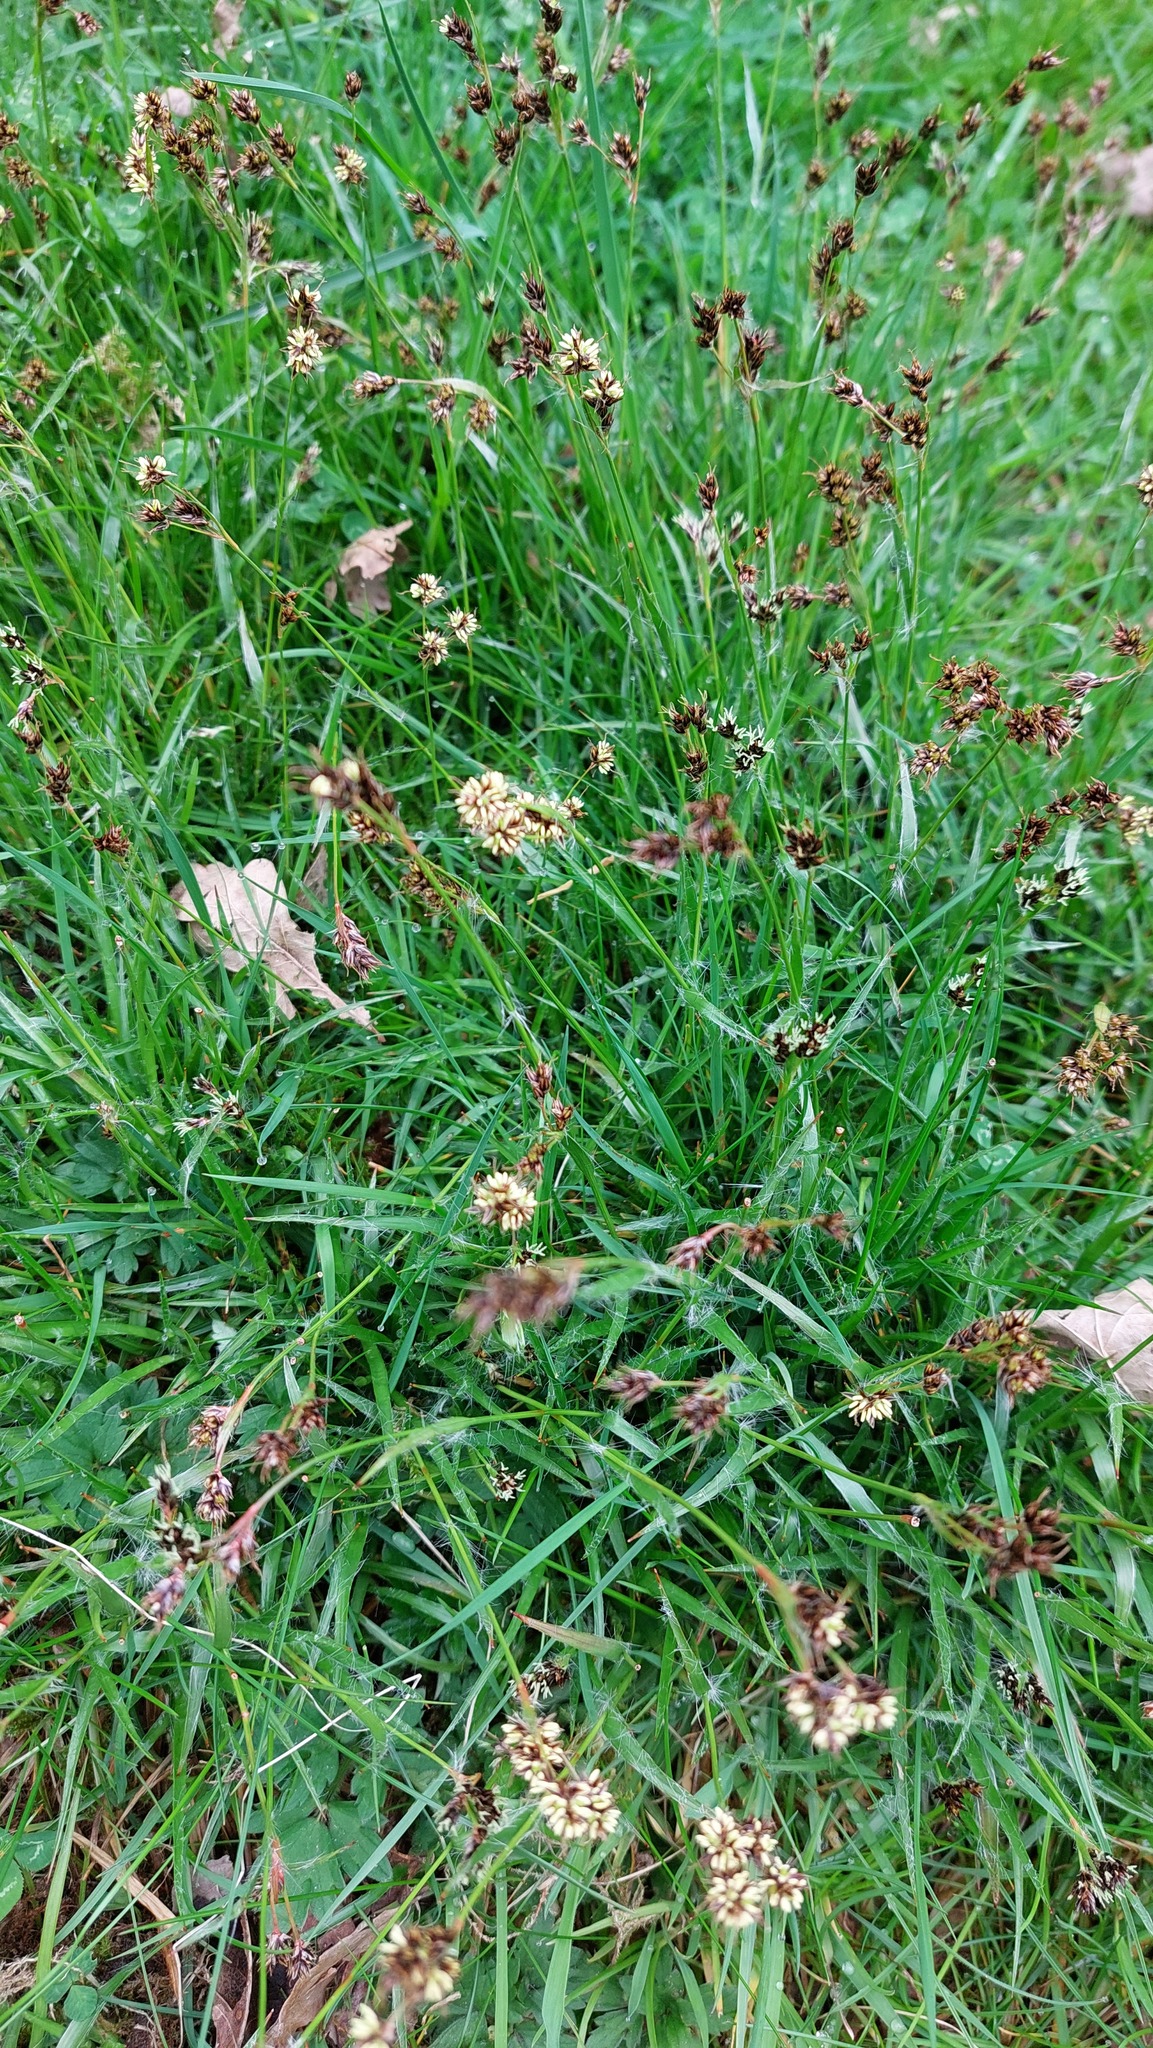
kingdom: Plantae
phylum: Tracheophyta
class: Liliopsida
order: Poales
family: Juncaceae
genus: Luzula
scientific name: Luzula campestris
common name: Field wood-rush
